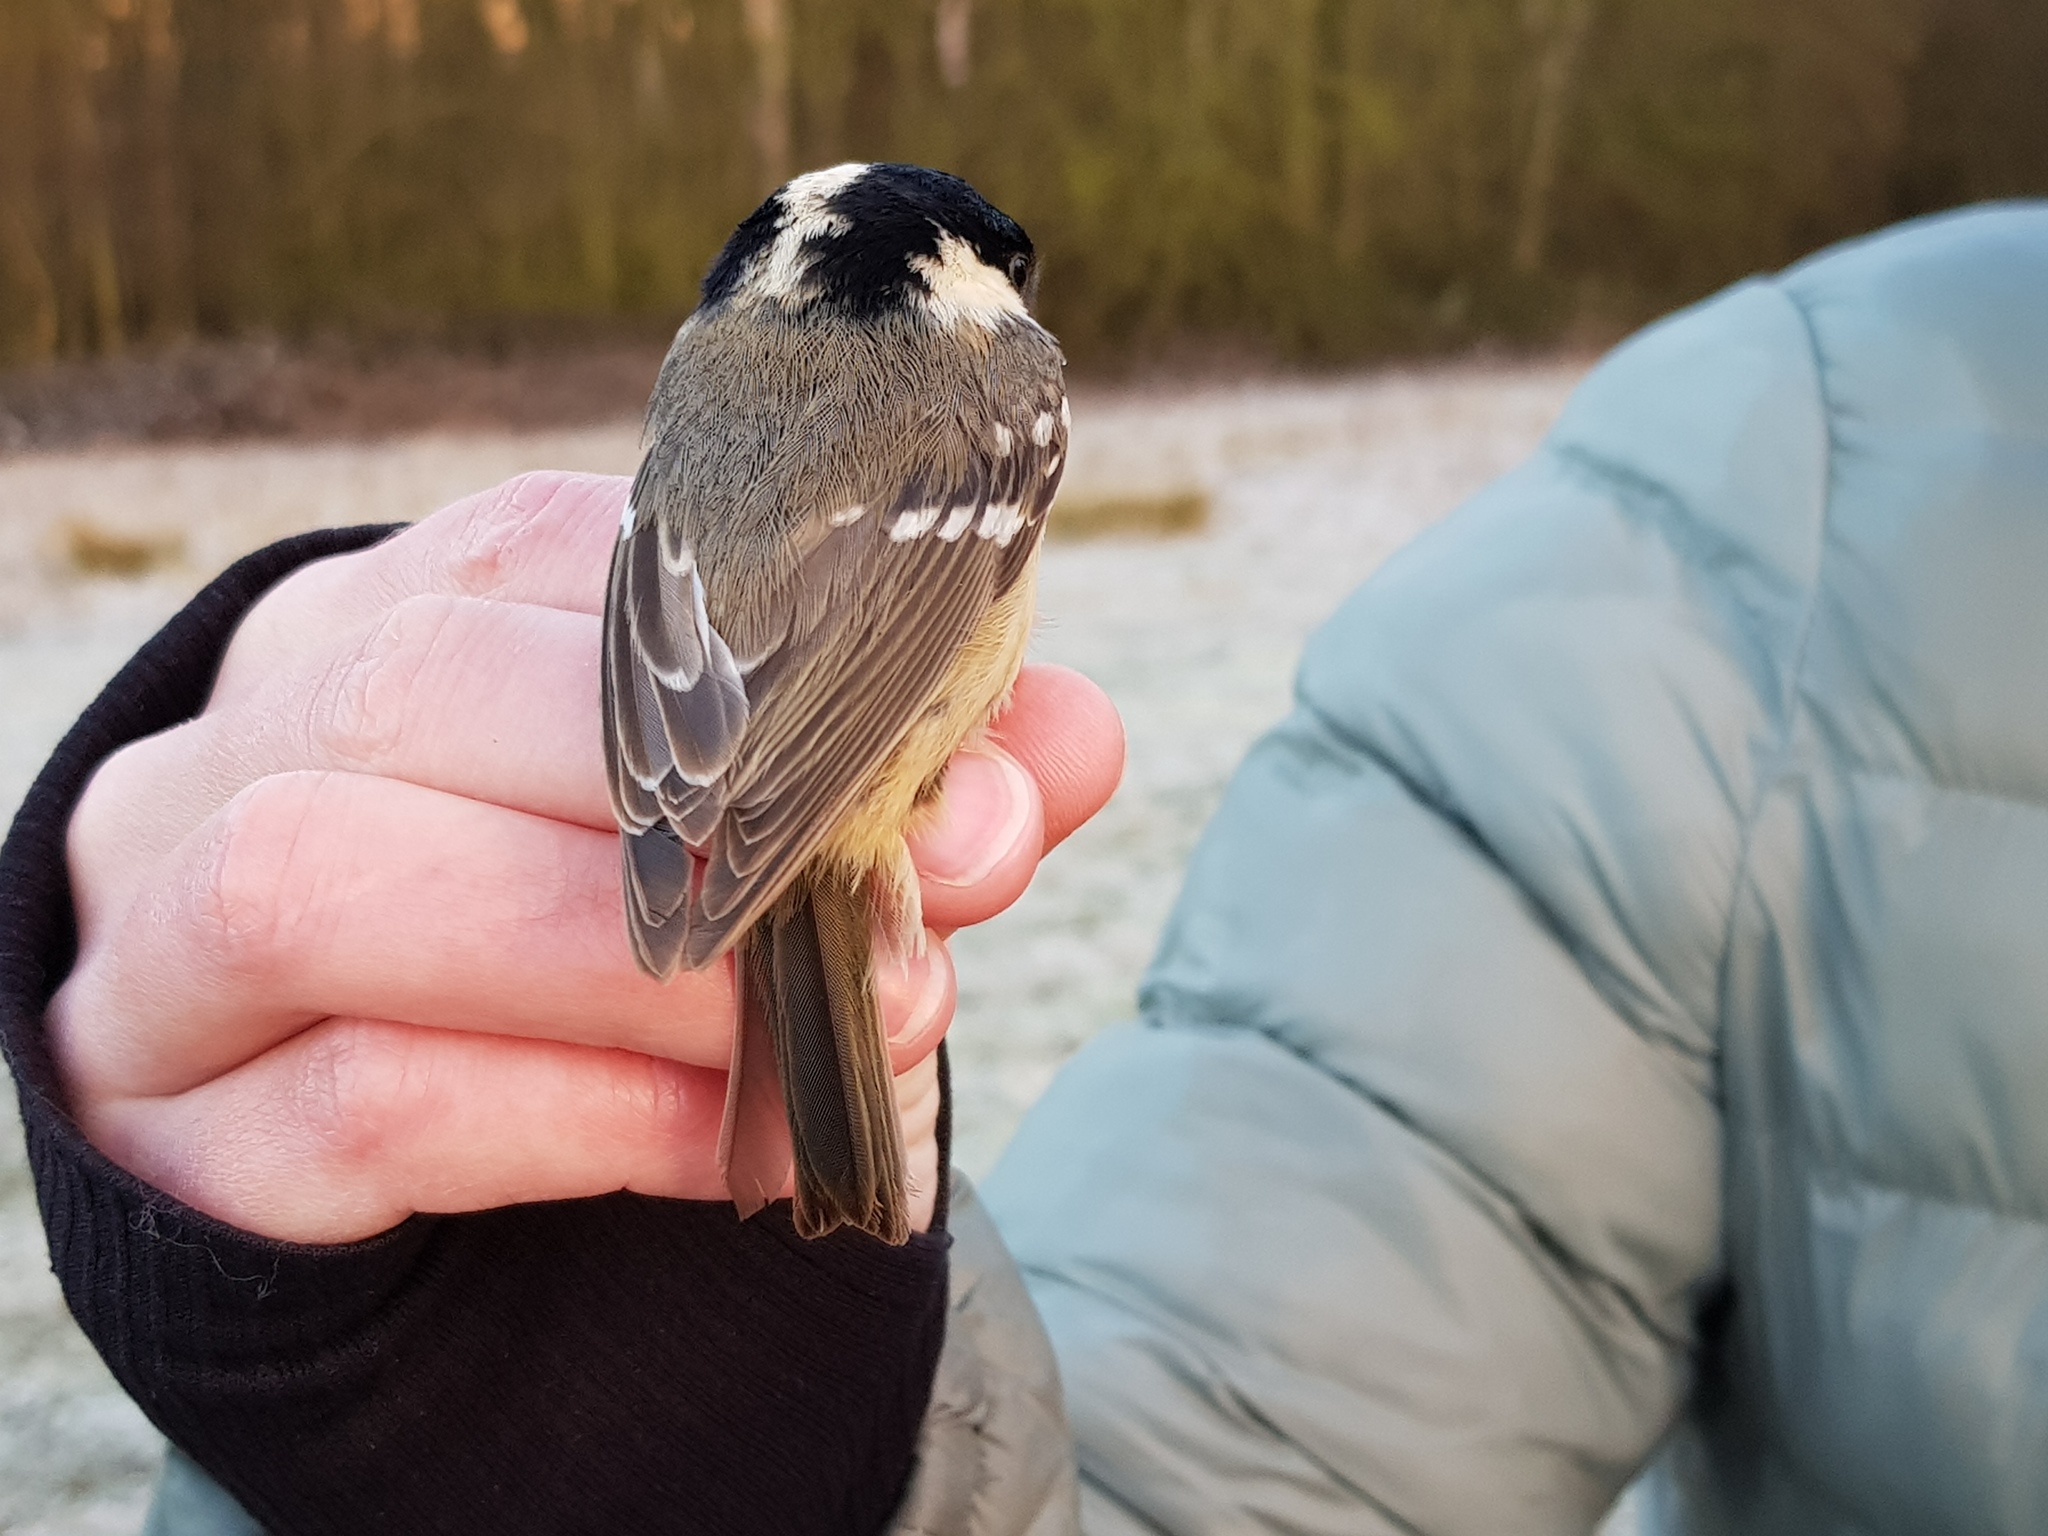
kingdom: Animalia
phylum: Chordata
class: Aves
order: Passeriformes
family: Paridae
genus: Periparus
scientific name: Periparus ater
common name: Coal tit
